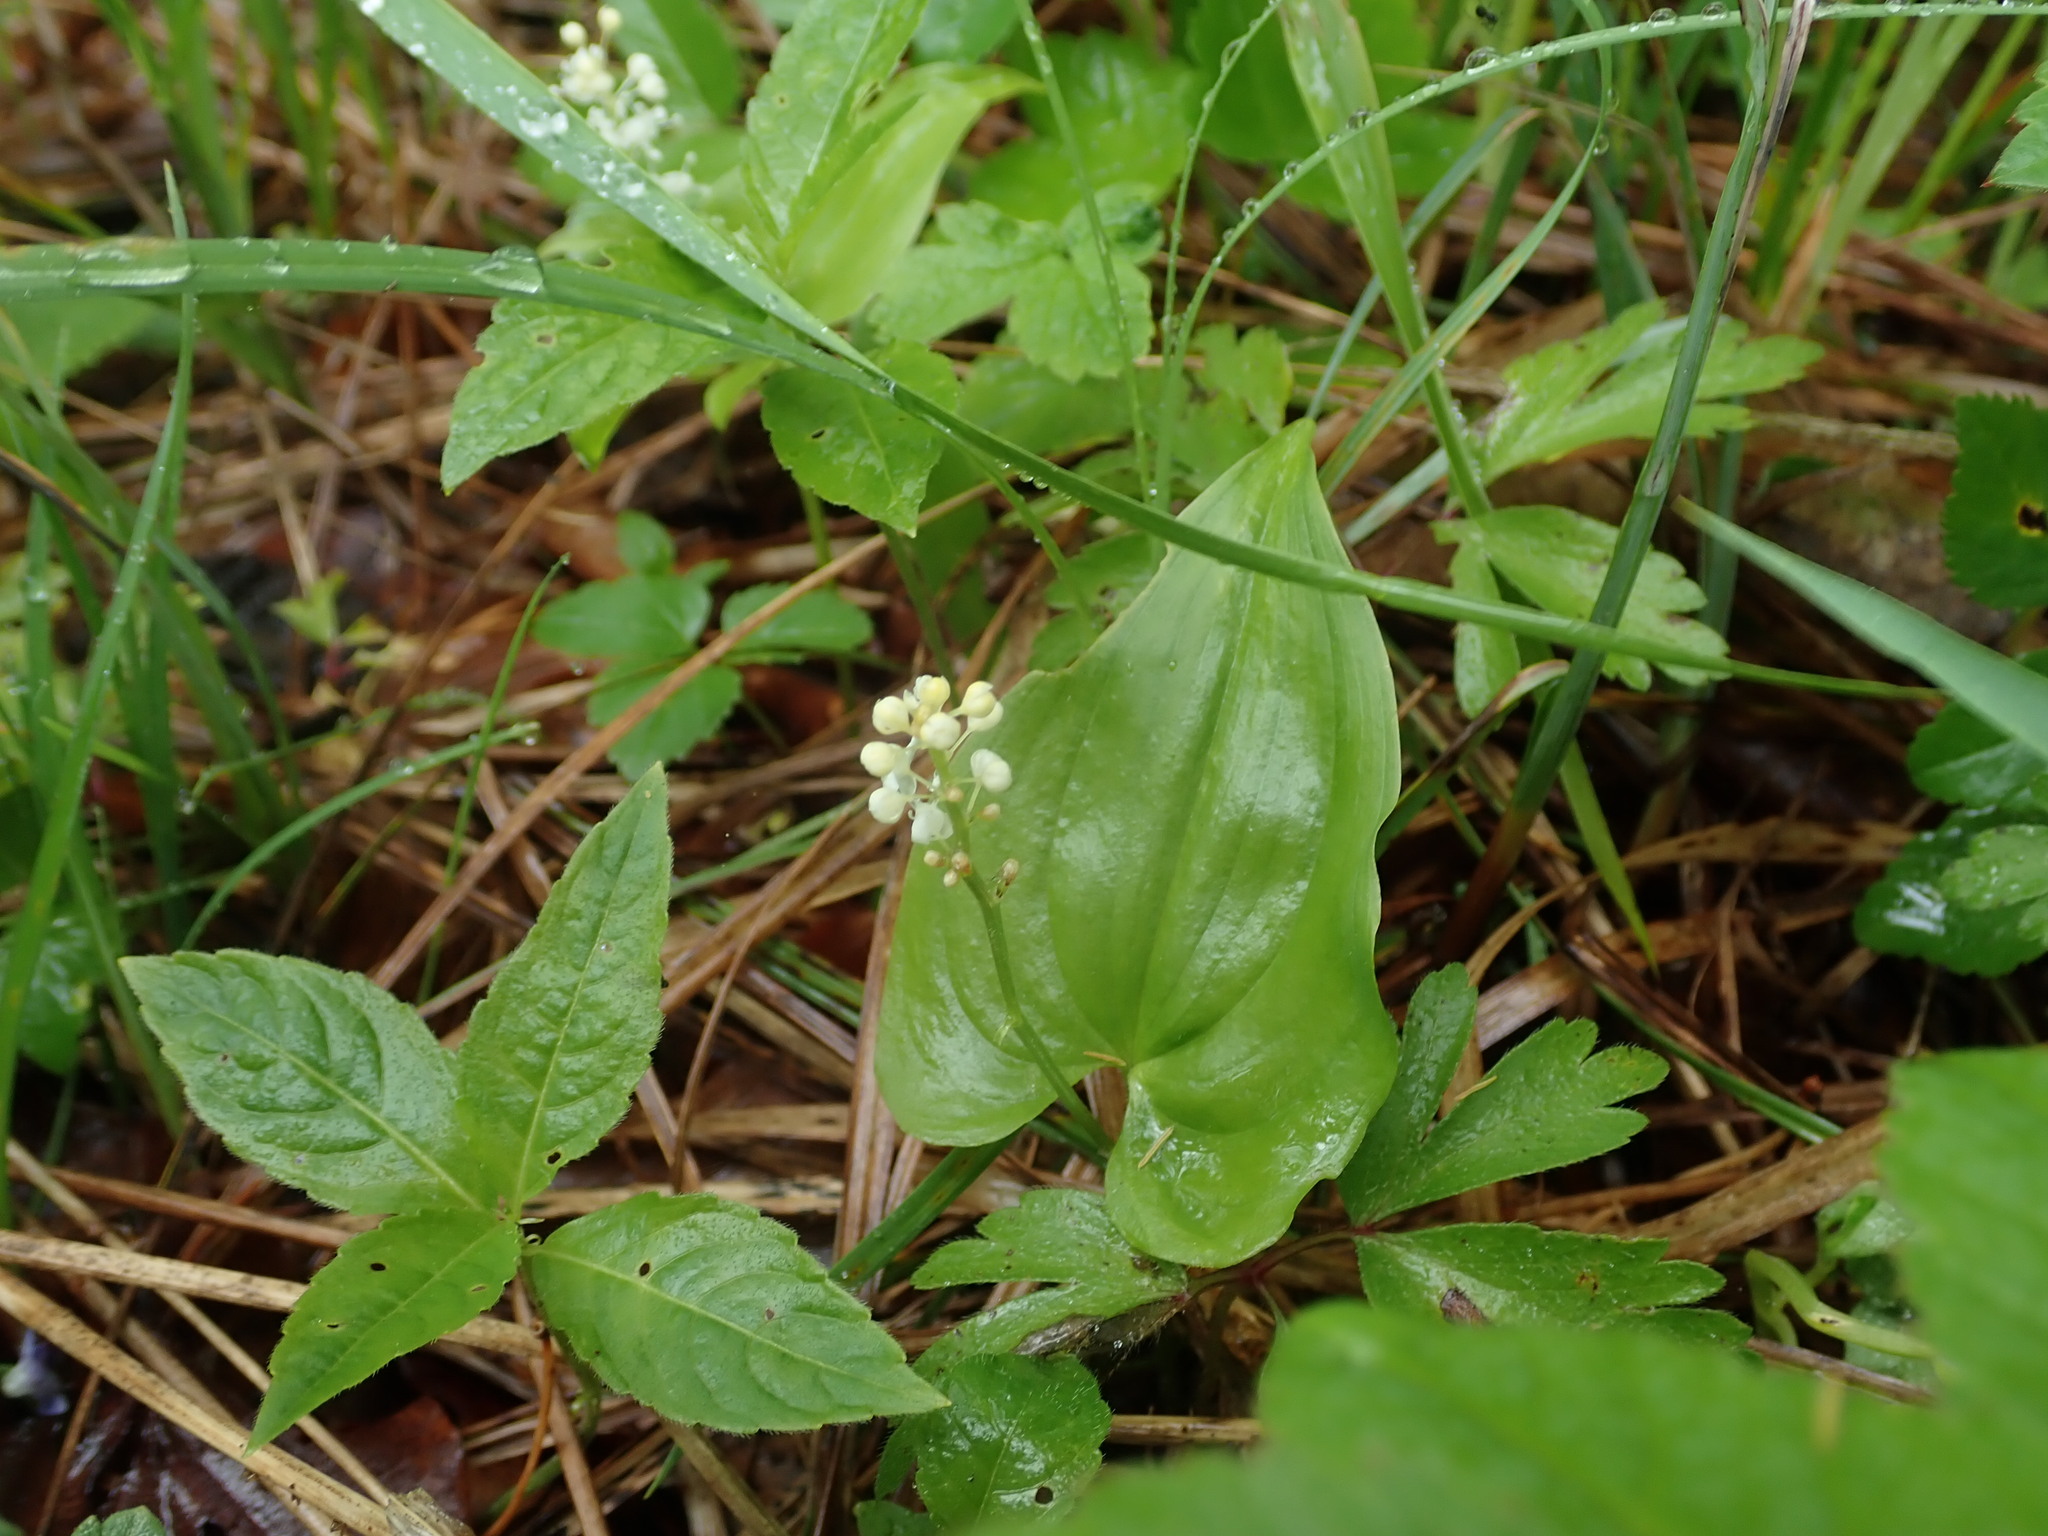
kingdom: Plantae
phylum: Tracheophyta
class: Liliopsida
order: Asparagales
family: Asparagaceae
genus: Maianthemum
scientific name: Maianthemum bifolium
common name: May lily
